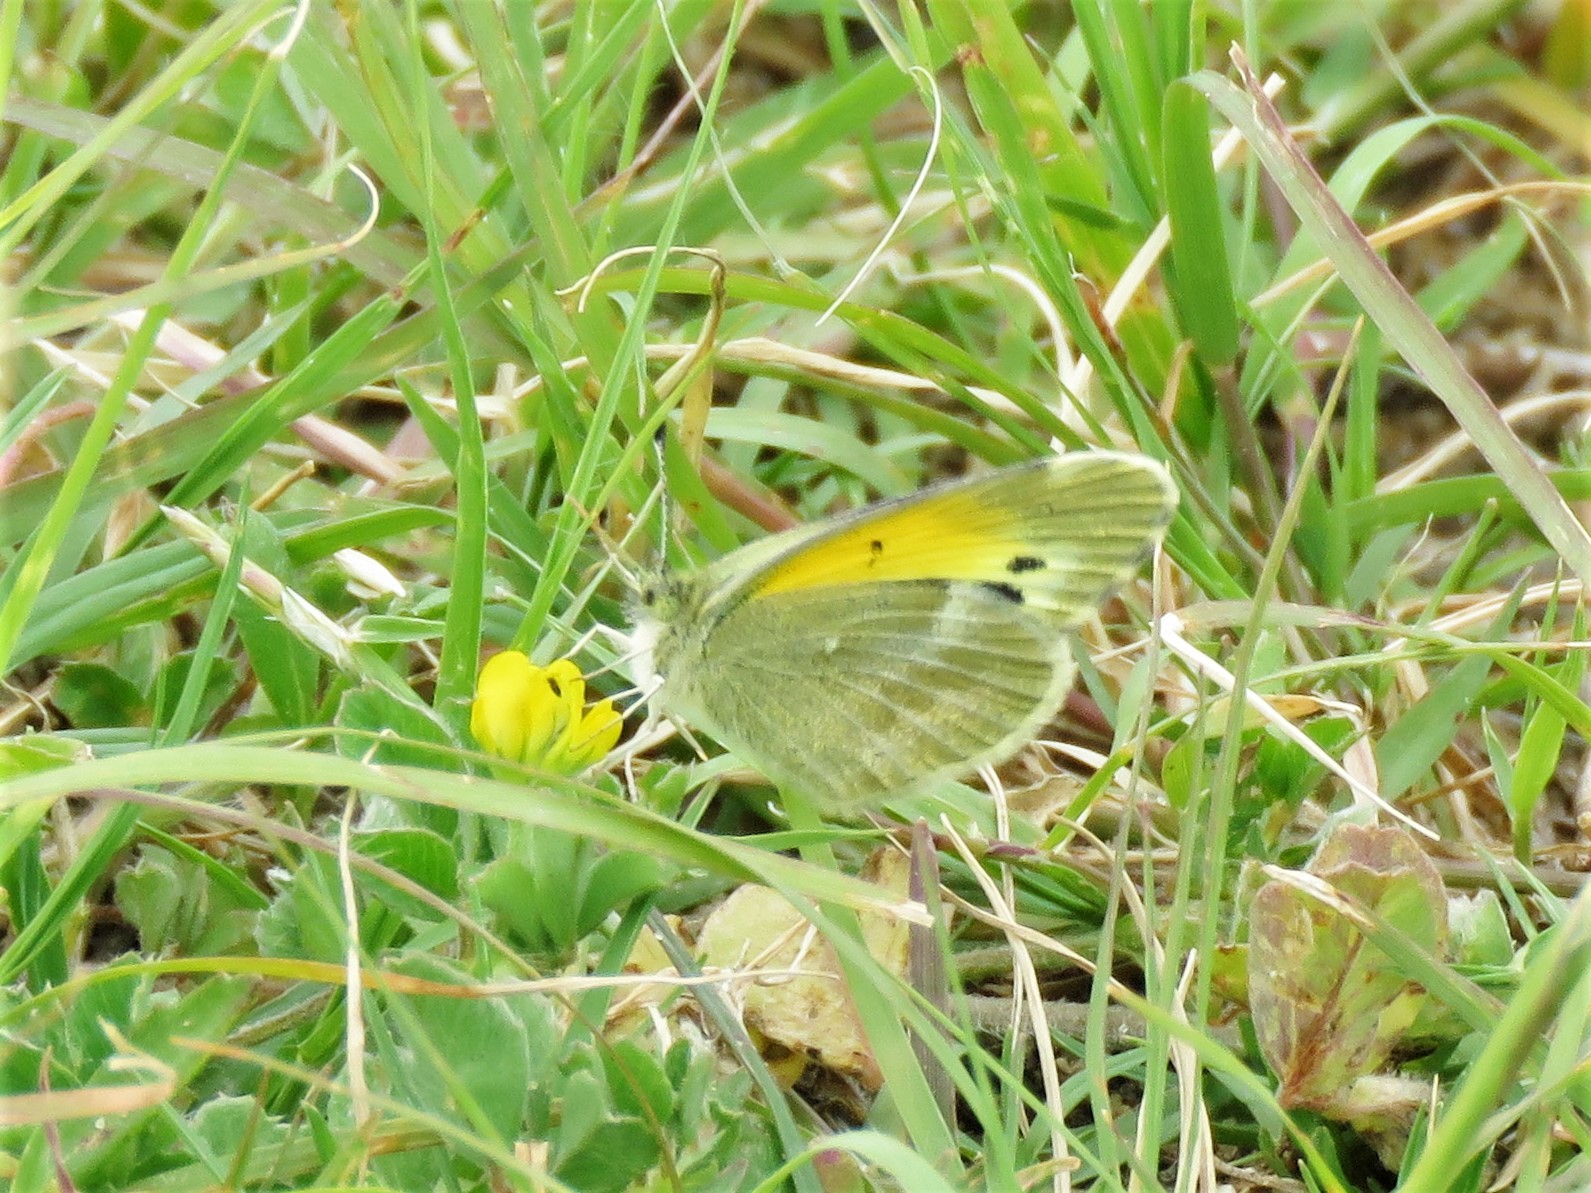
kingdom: Animalia
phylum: Arthropoda
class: Insecta
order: Lepidoptera
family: Pieridae
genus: Nathalis
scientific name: Nathalis iole
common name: Dainty sulphur
